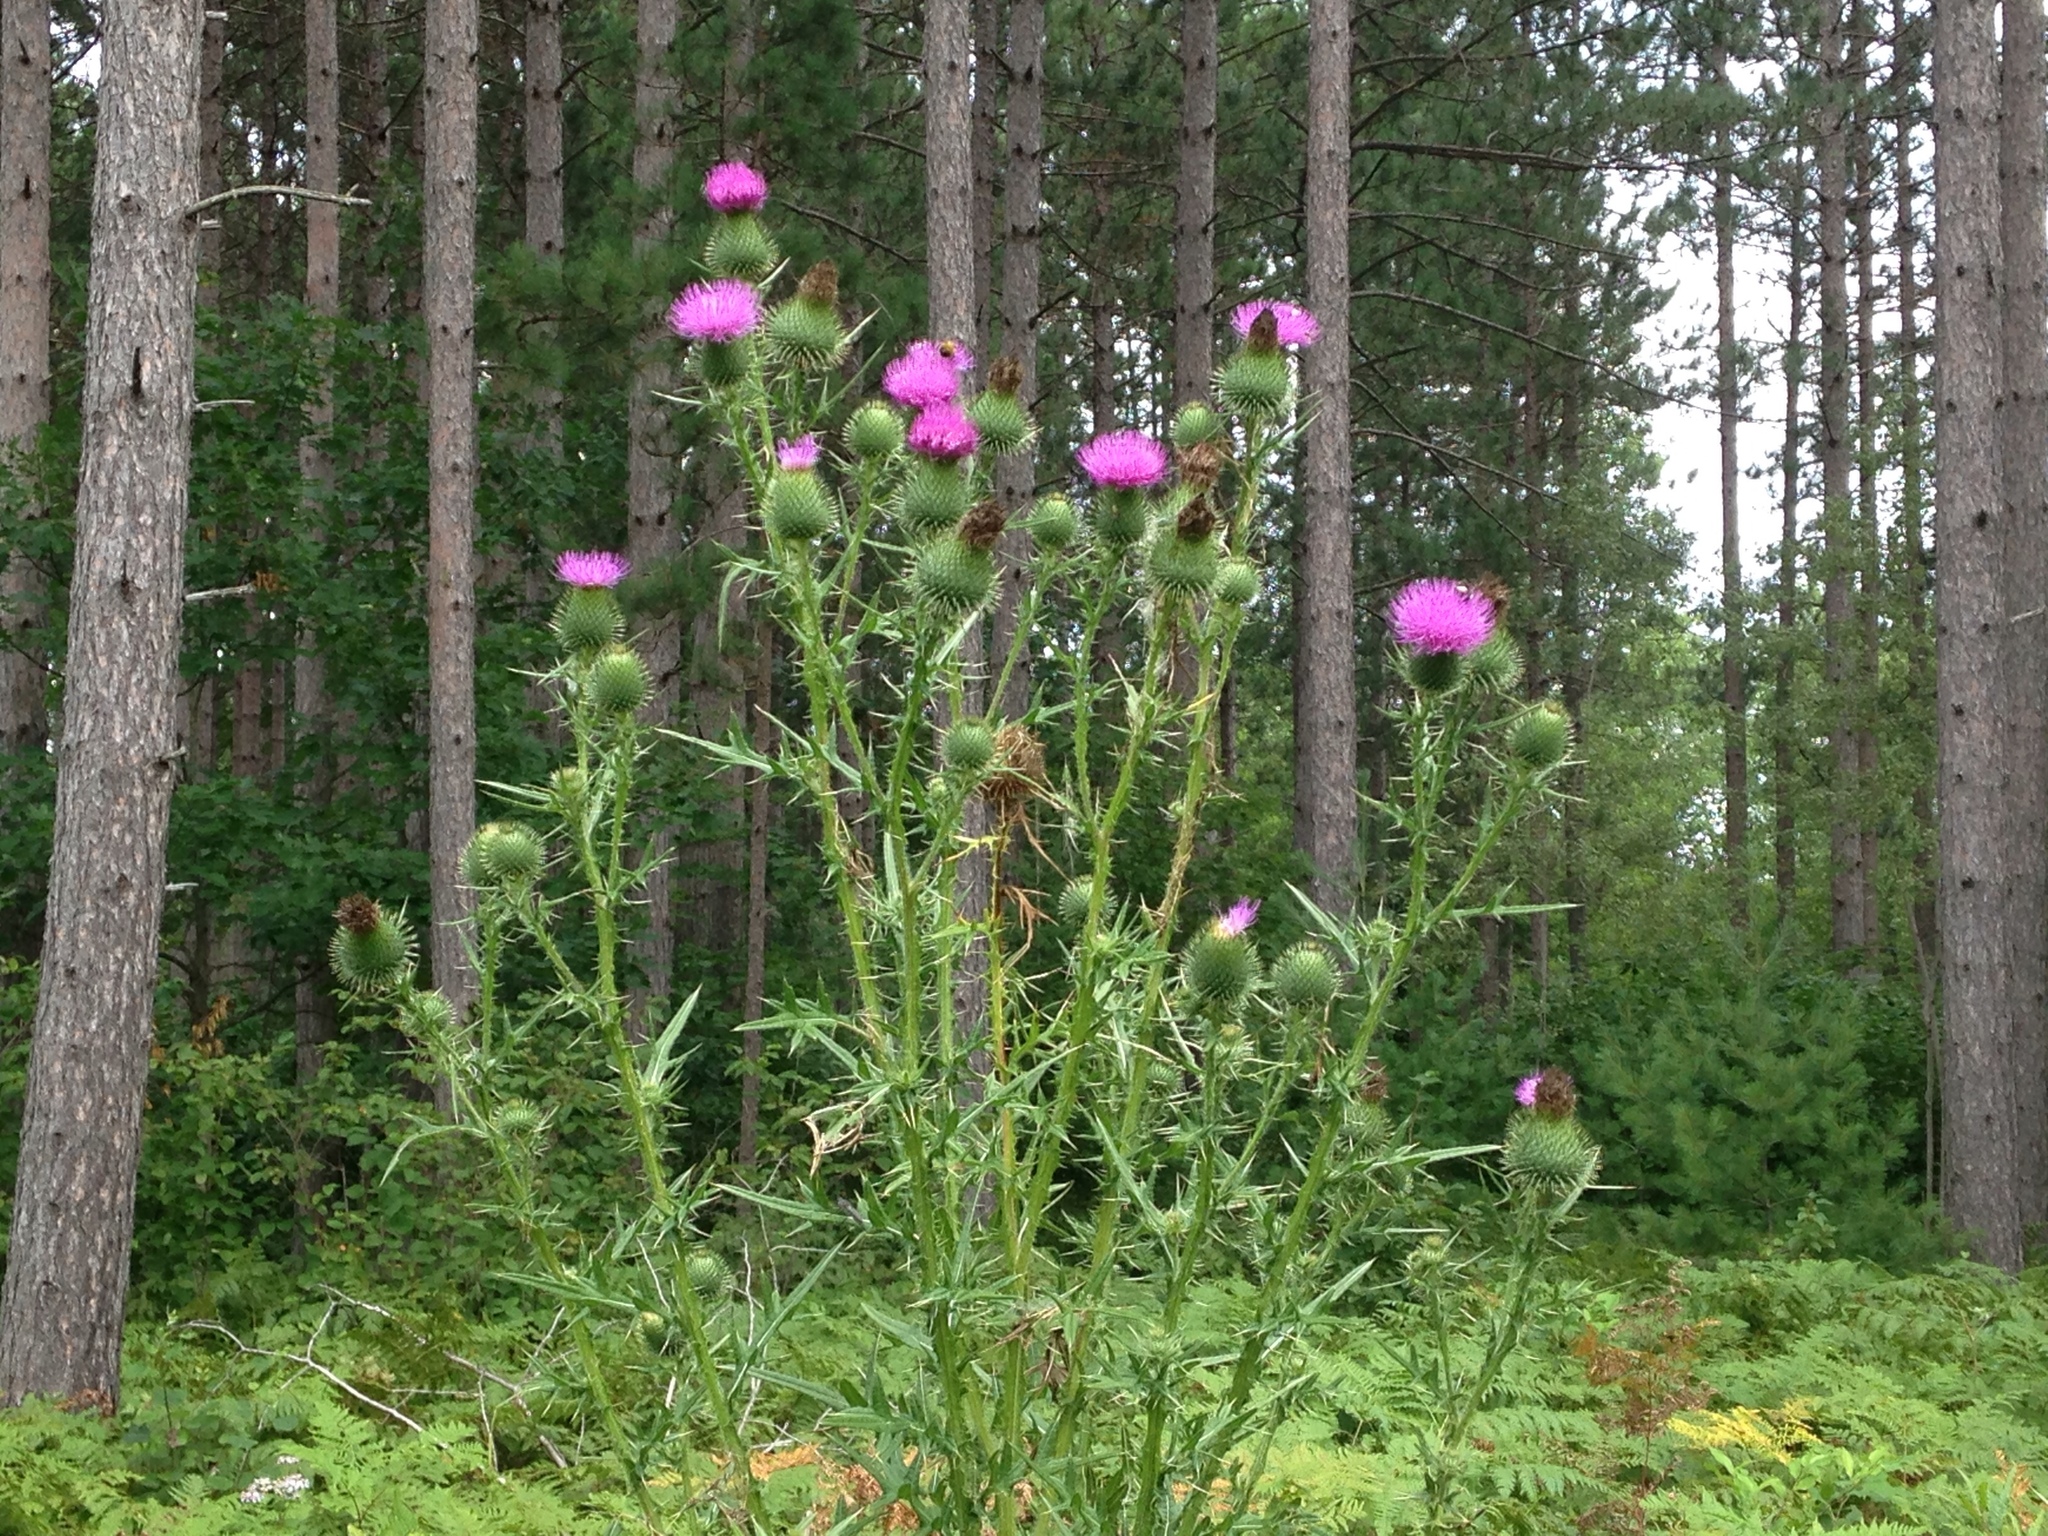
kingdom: Plantae
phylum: Tracheophyta
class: Magnoliopsida
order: Asterales
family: Asteraceae
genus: Cirsium
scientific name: Cirsium vulgare
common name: Bull thistle
